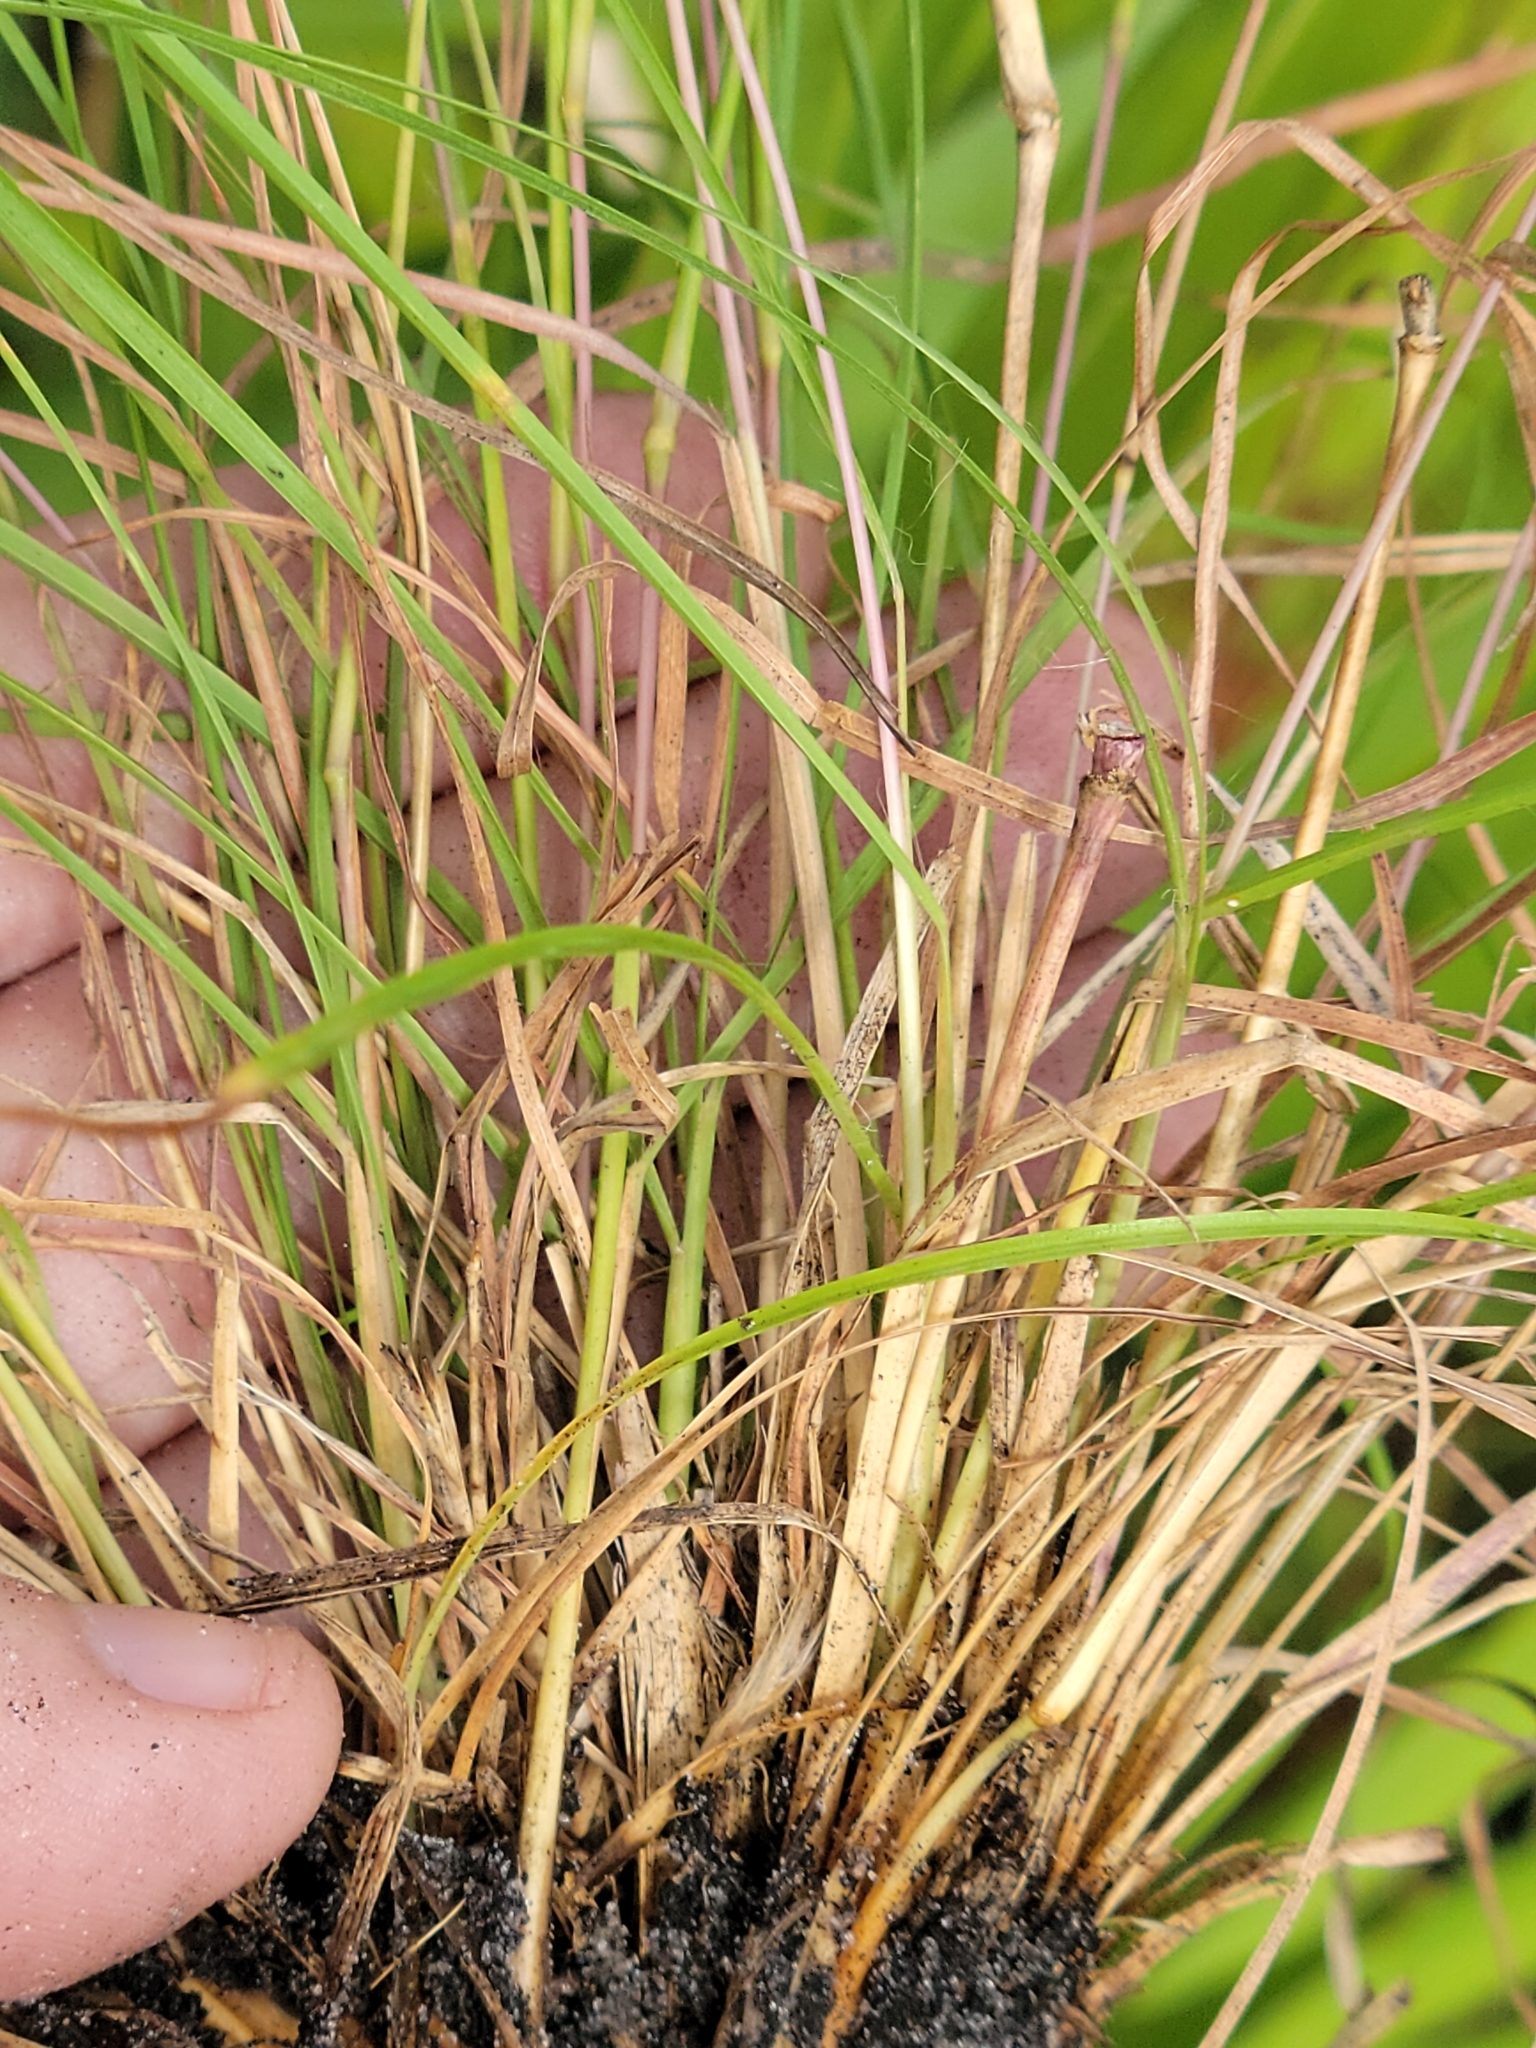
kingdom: Plantae
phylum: Tracheophyta
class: Liliopsida
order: Poales
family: Poaceae
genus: Andropogon
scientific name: Andropogon perangustatus
